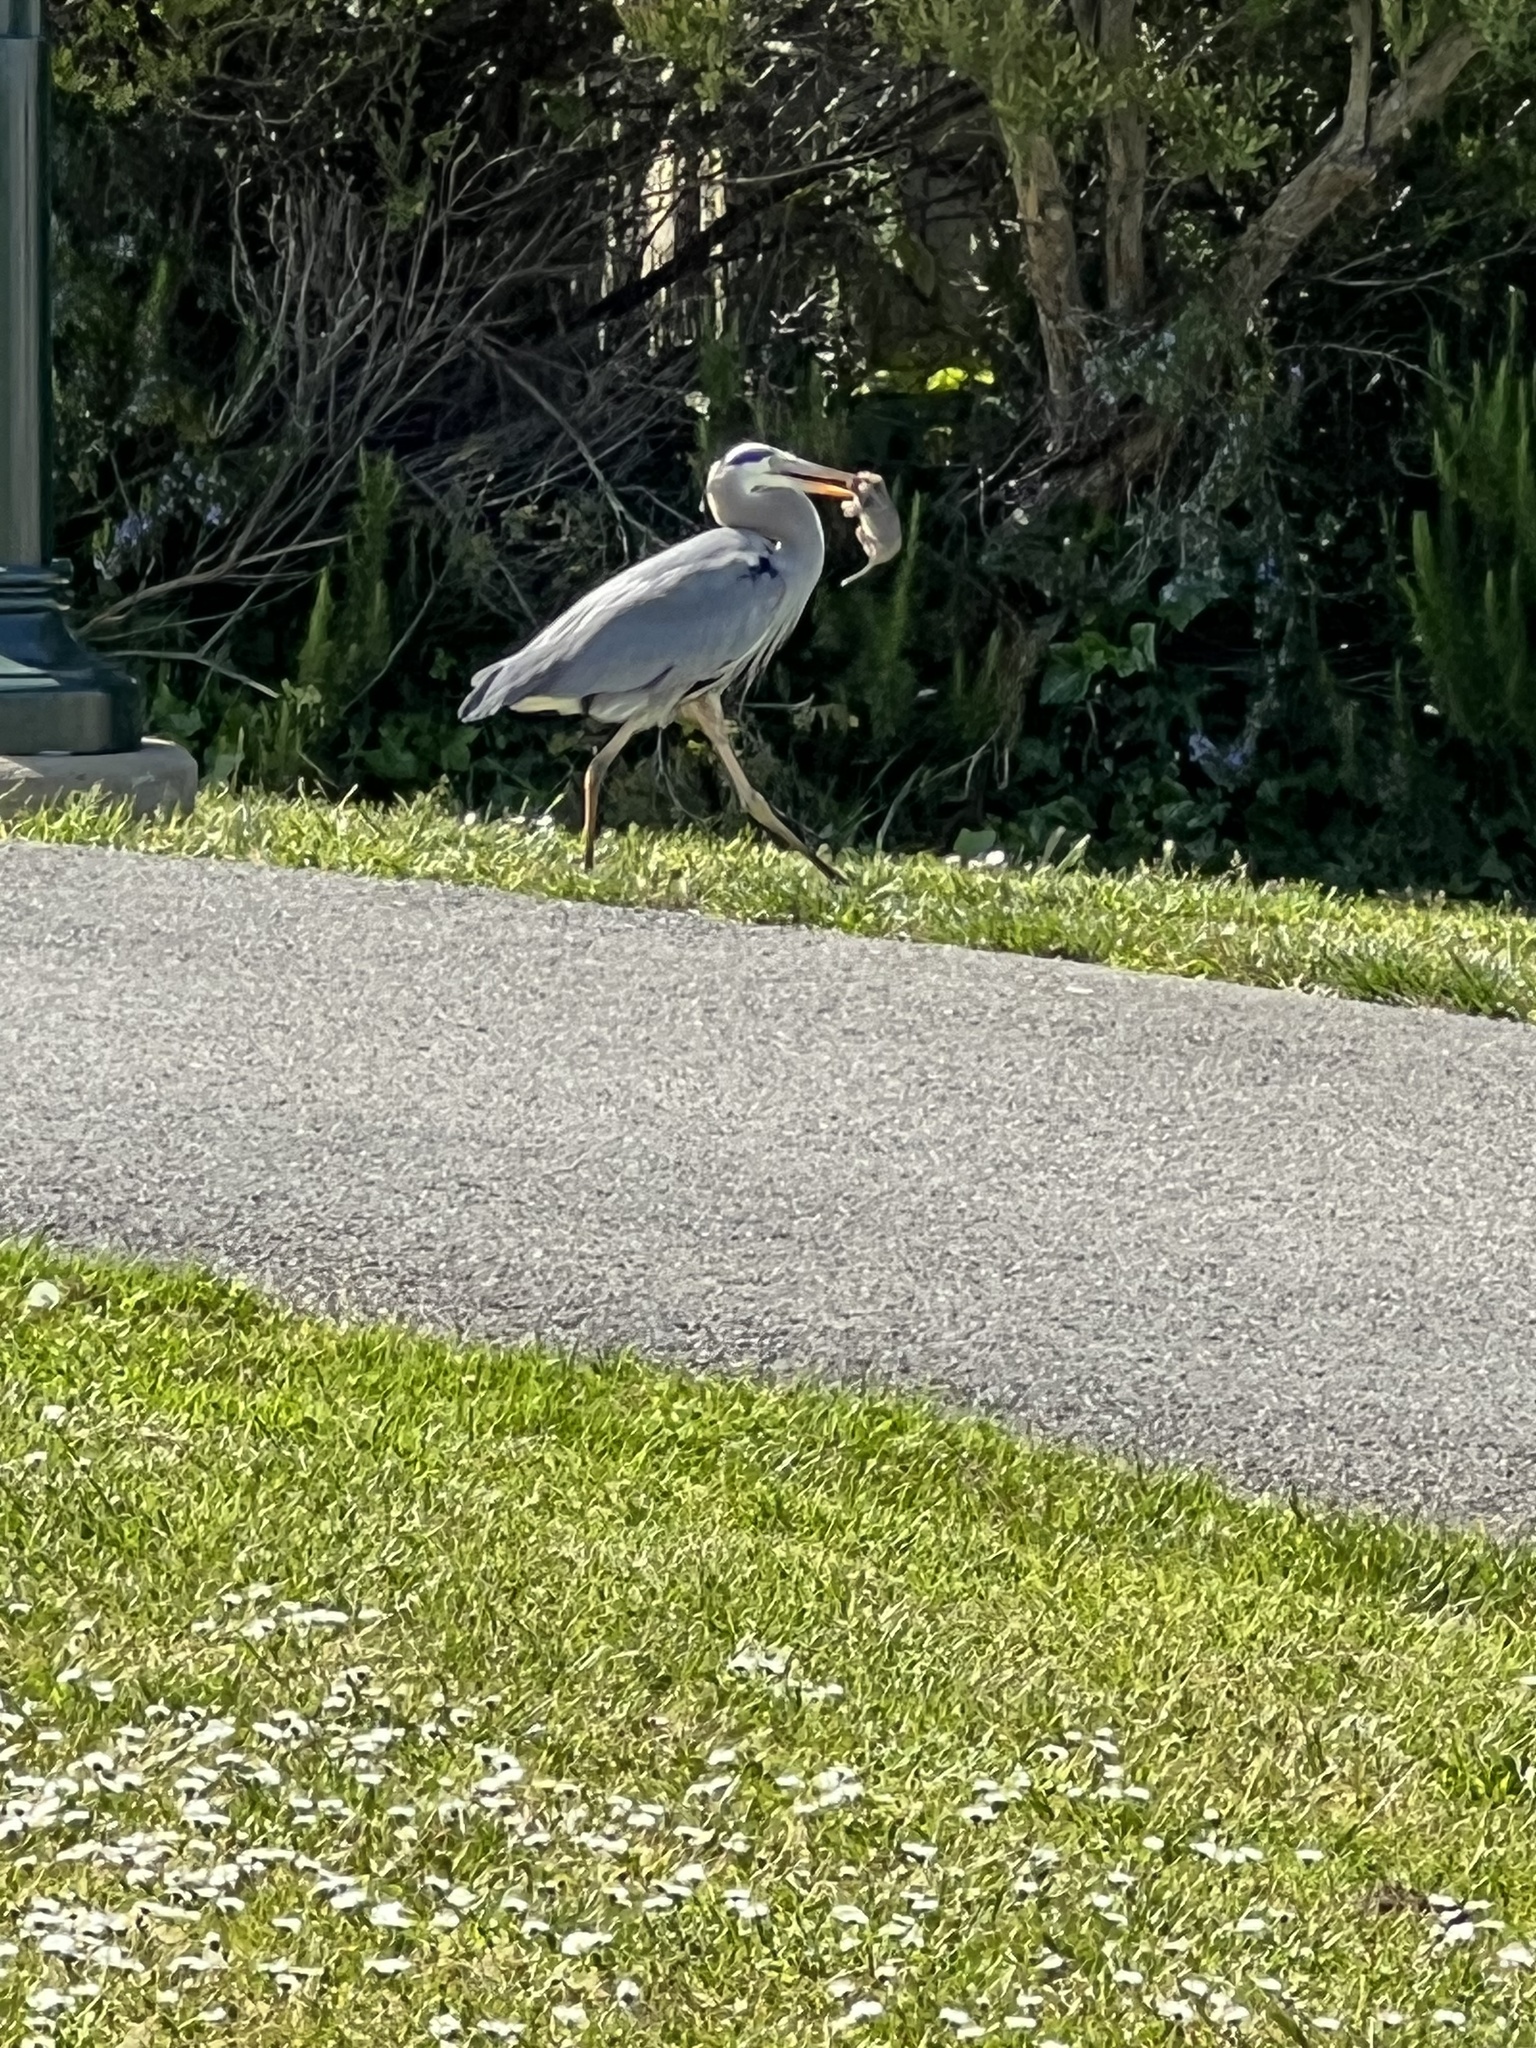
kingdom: Animalia
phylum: Chordata
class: Aves
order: Pelecaniformes
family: Ardeidae
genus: Ardea
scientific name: Ardea herodias
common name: Great blue heron
